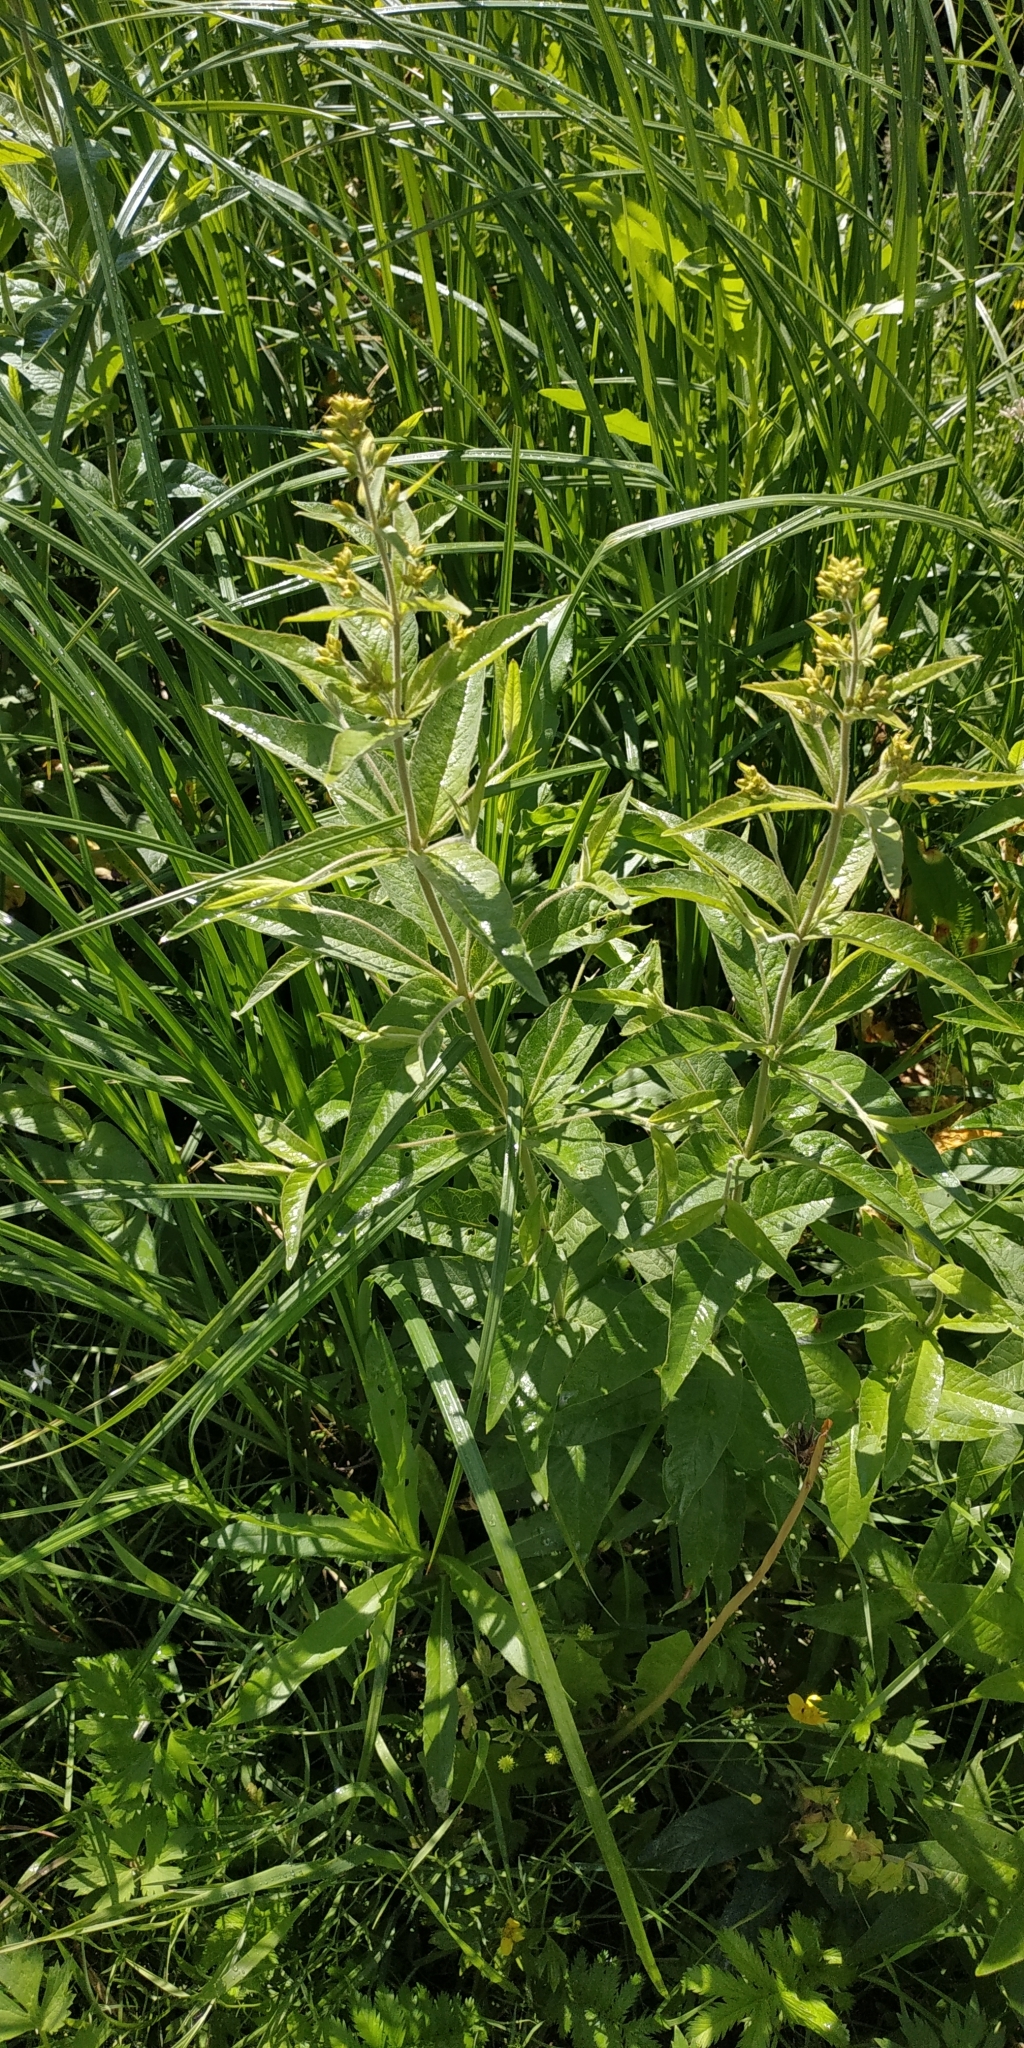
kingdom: Plantae
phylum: Tracheophyta
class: Magnoliopsida
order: Ericales
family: Primulaceae
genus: Lysimachia
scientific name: Lysimachia vulgaris
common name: Yellow loosestrife
